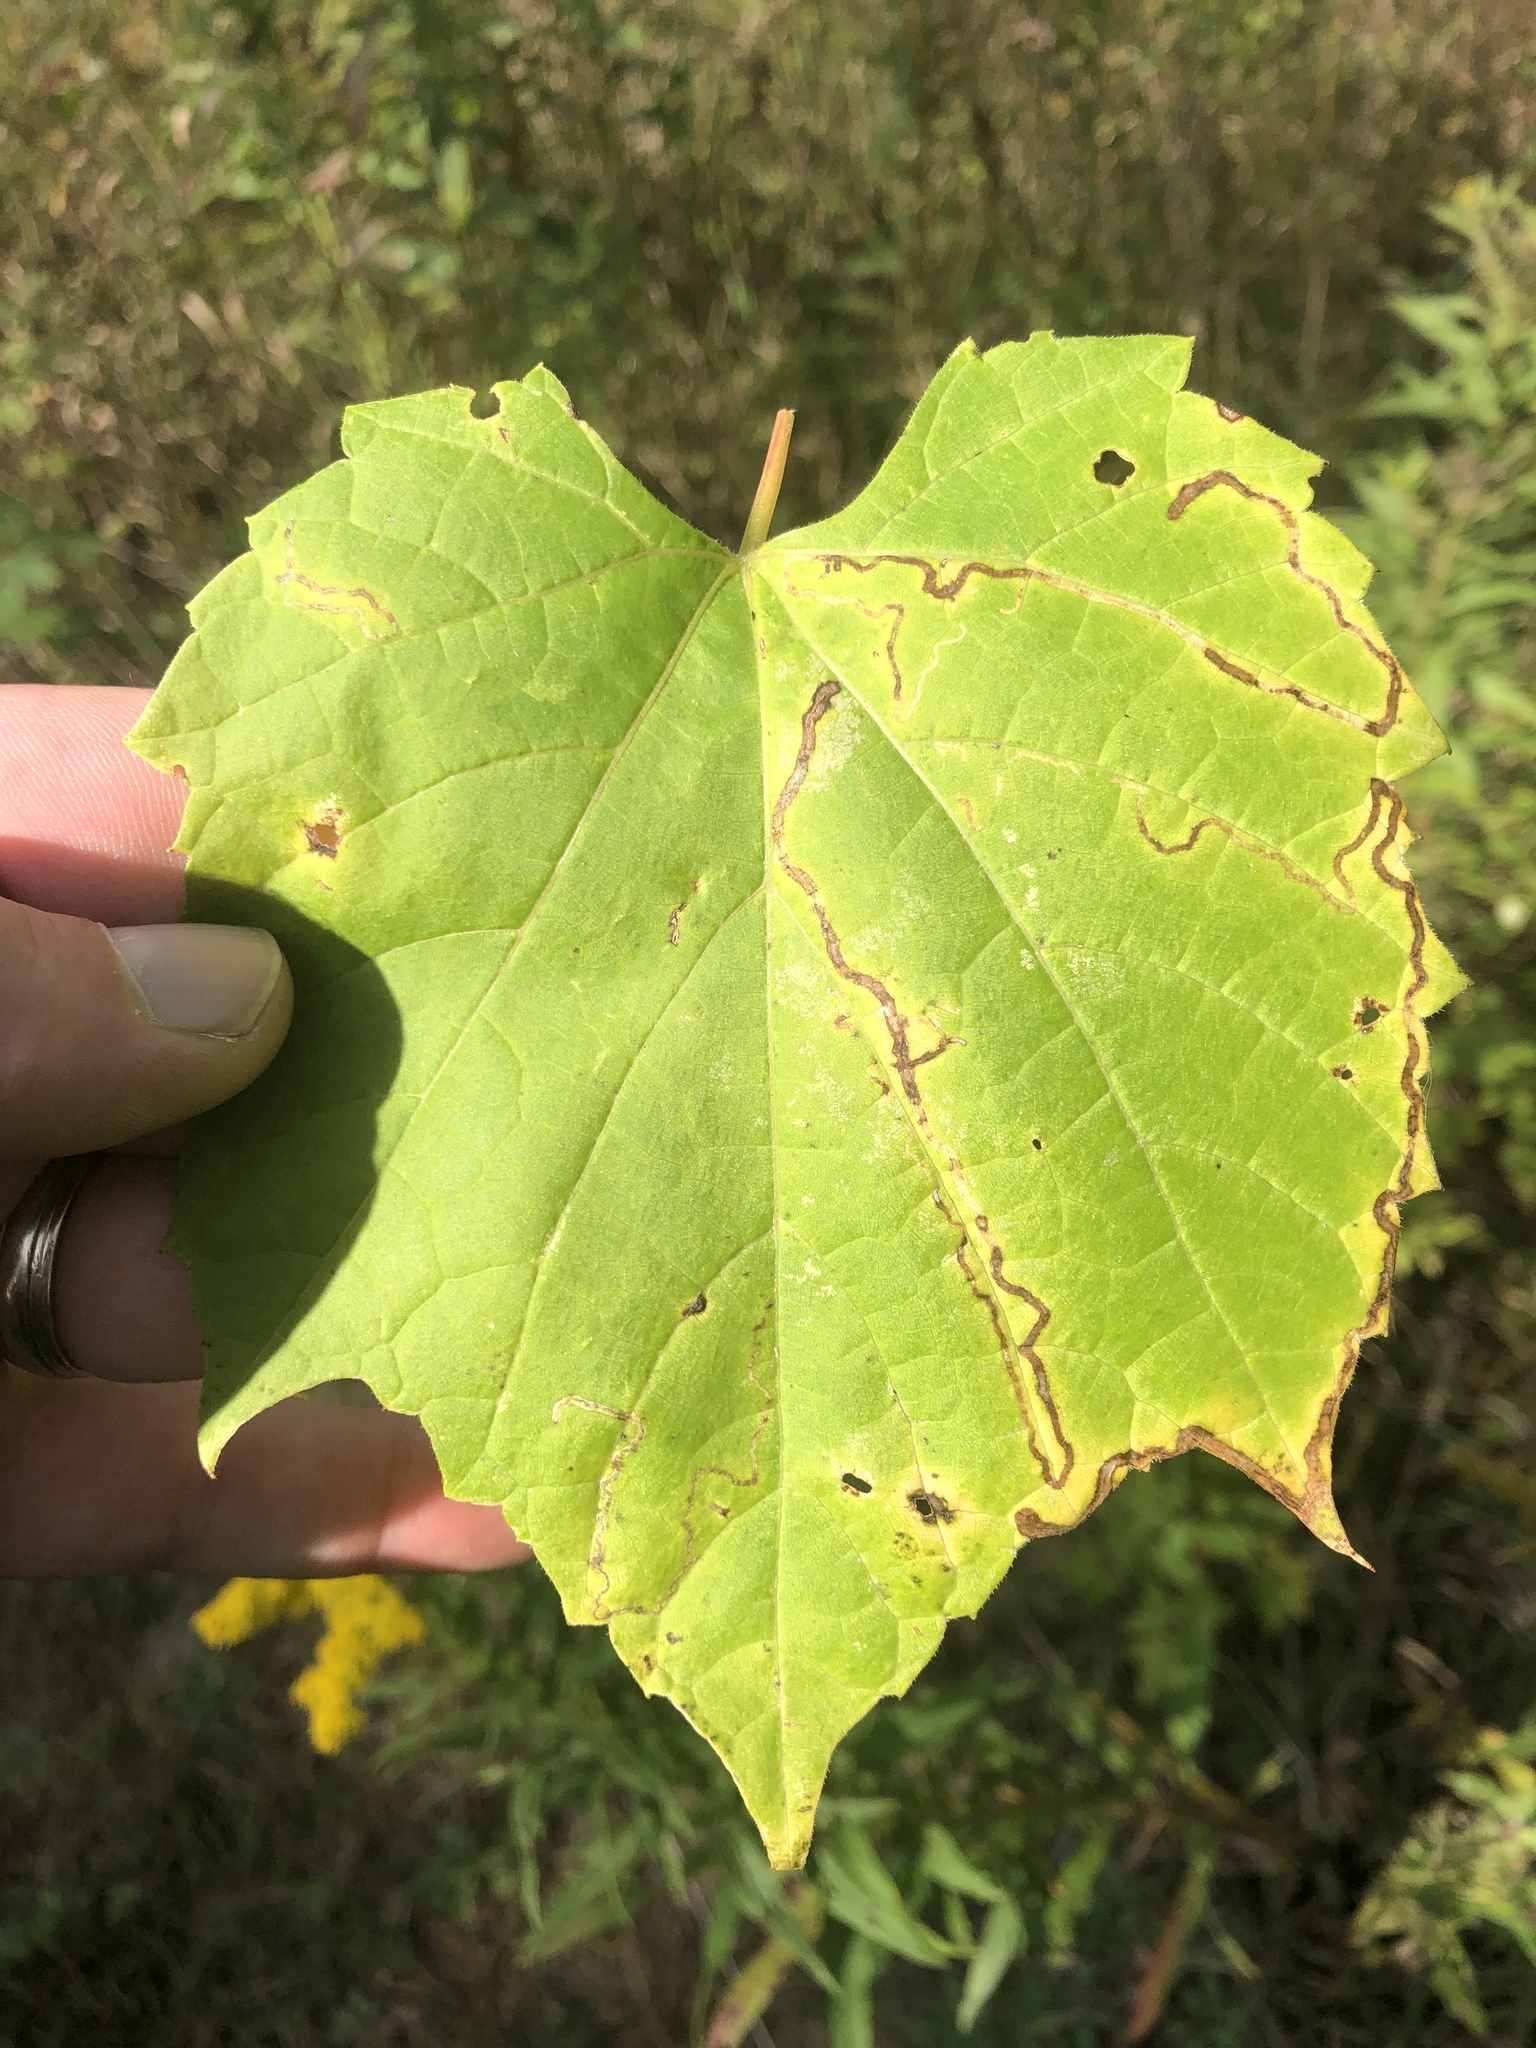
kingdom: Animalia
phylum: Arthropoda
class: Insecta
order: Lepidoptera
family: Gracillariidae
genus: Phyllocnistis
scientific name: Phyllocnistis vitifoliella
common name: Grape leaf-miner moth
